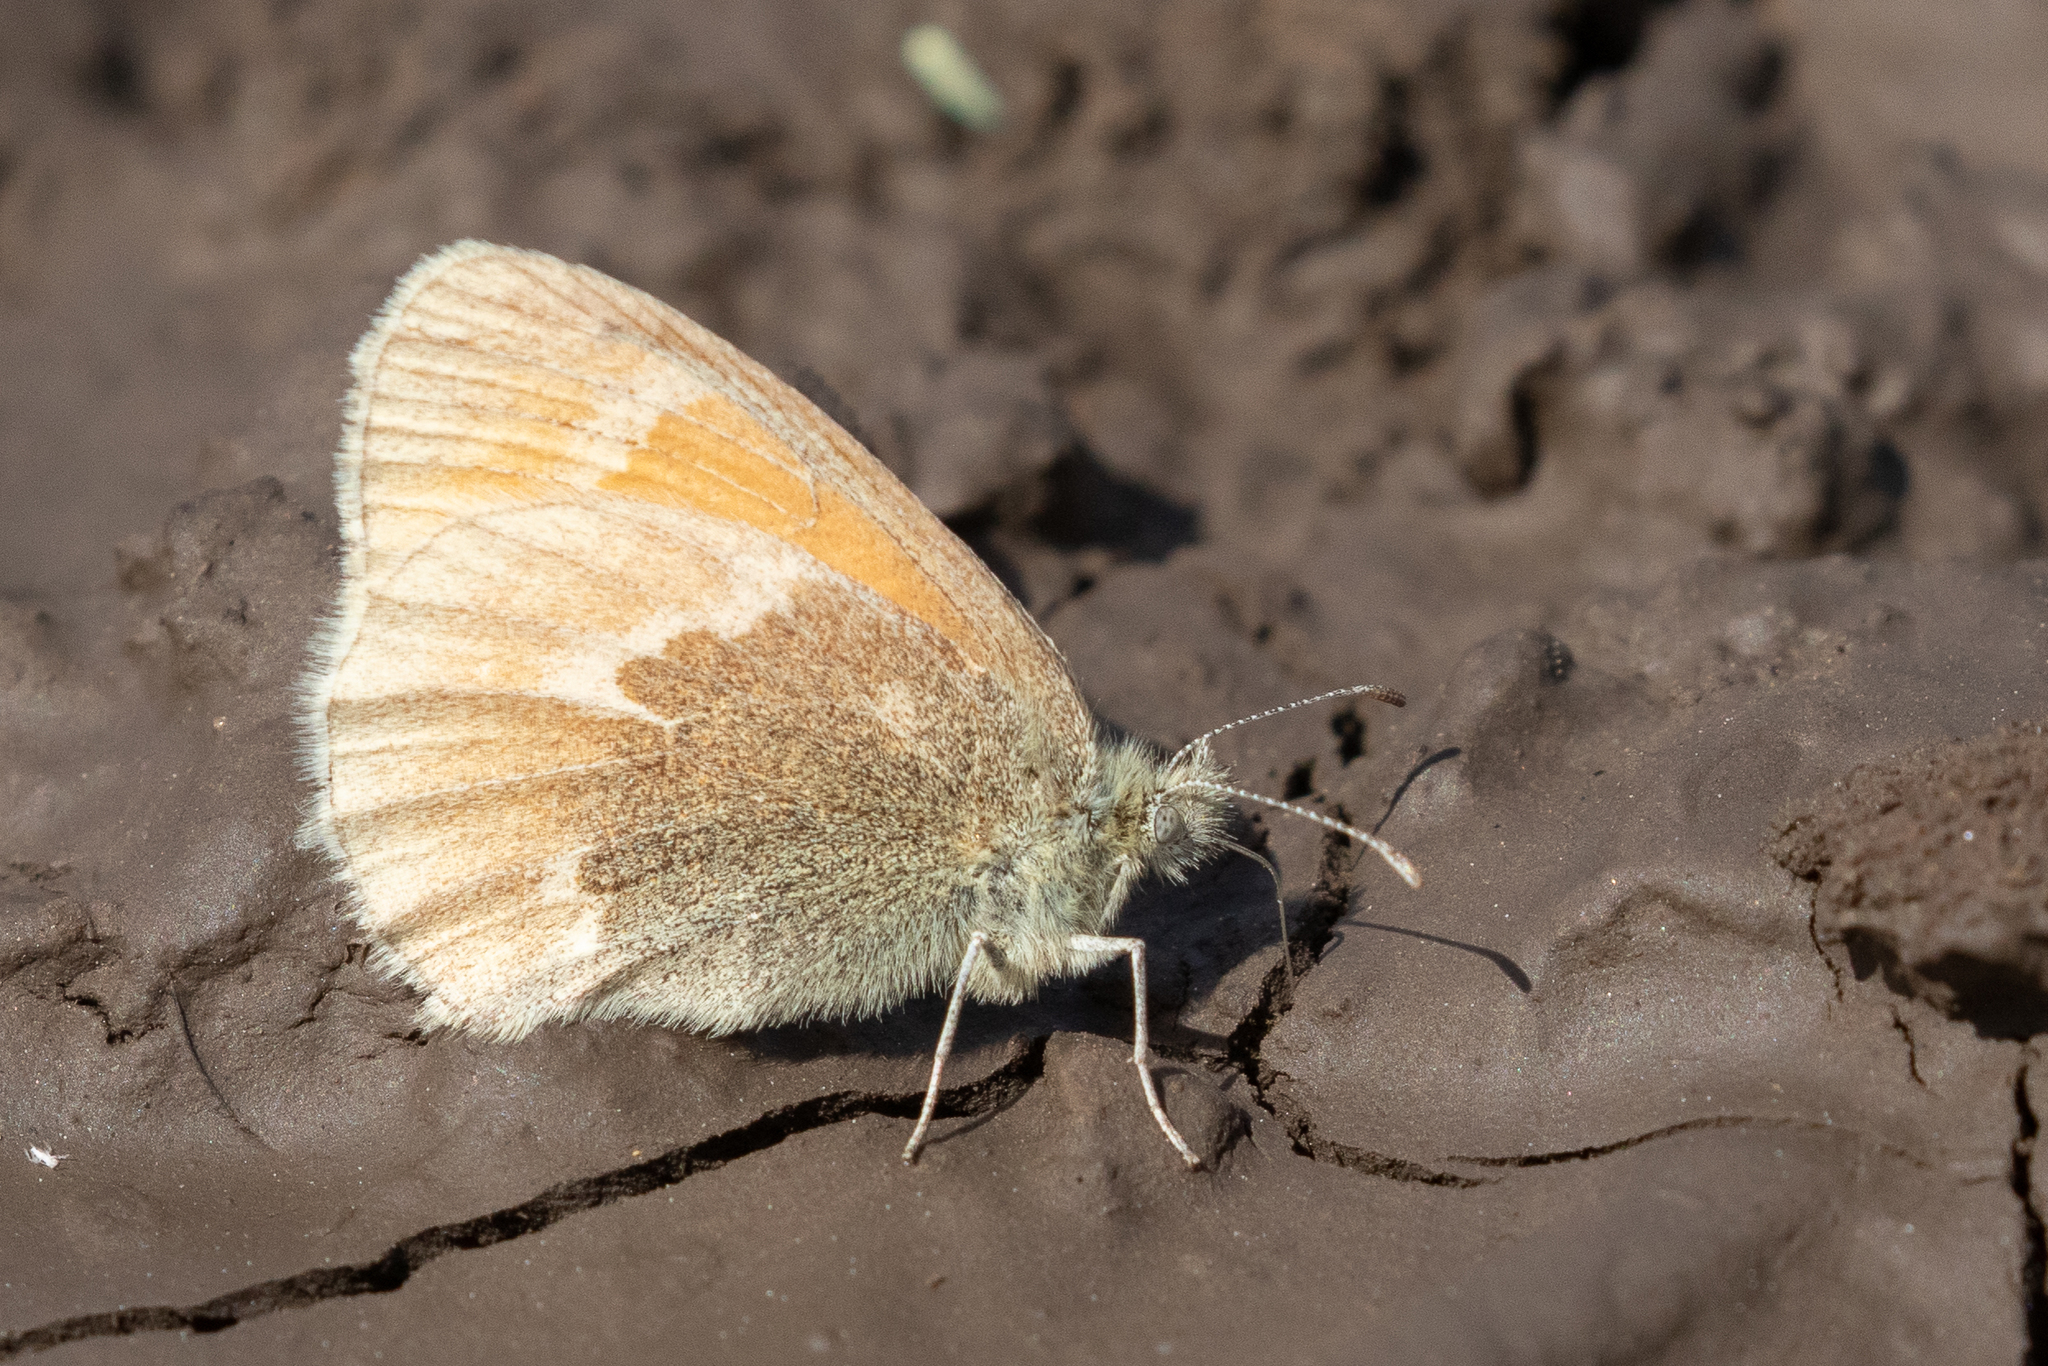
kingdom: Animalia
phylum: Arthropoda
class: Insecta
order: Lepidoptera
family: Nymphalidae
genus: Coenonympha
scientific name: Coenonympha california
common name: Common ringlet
